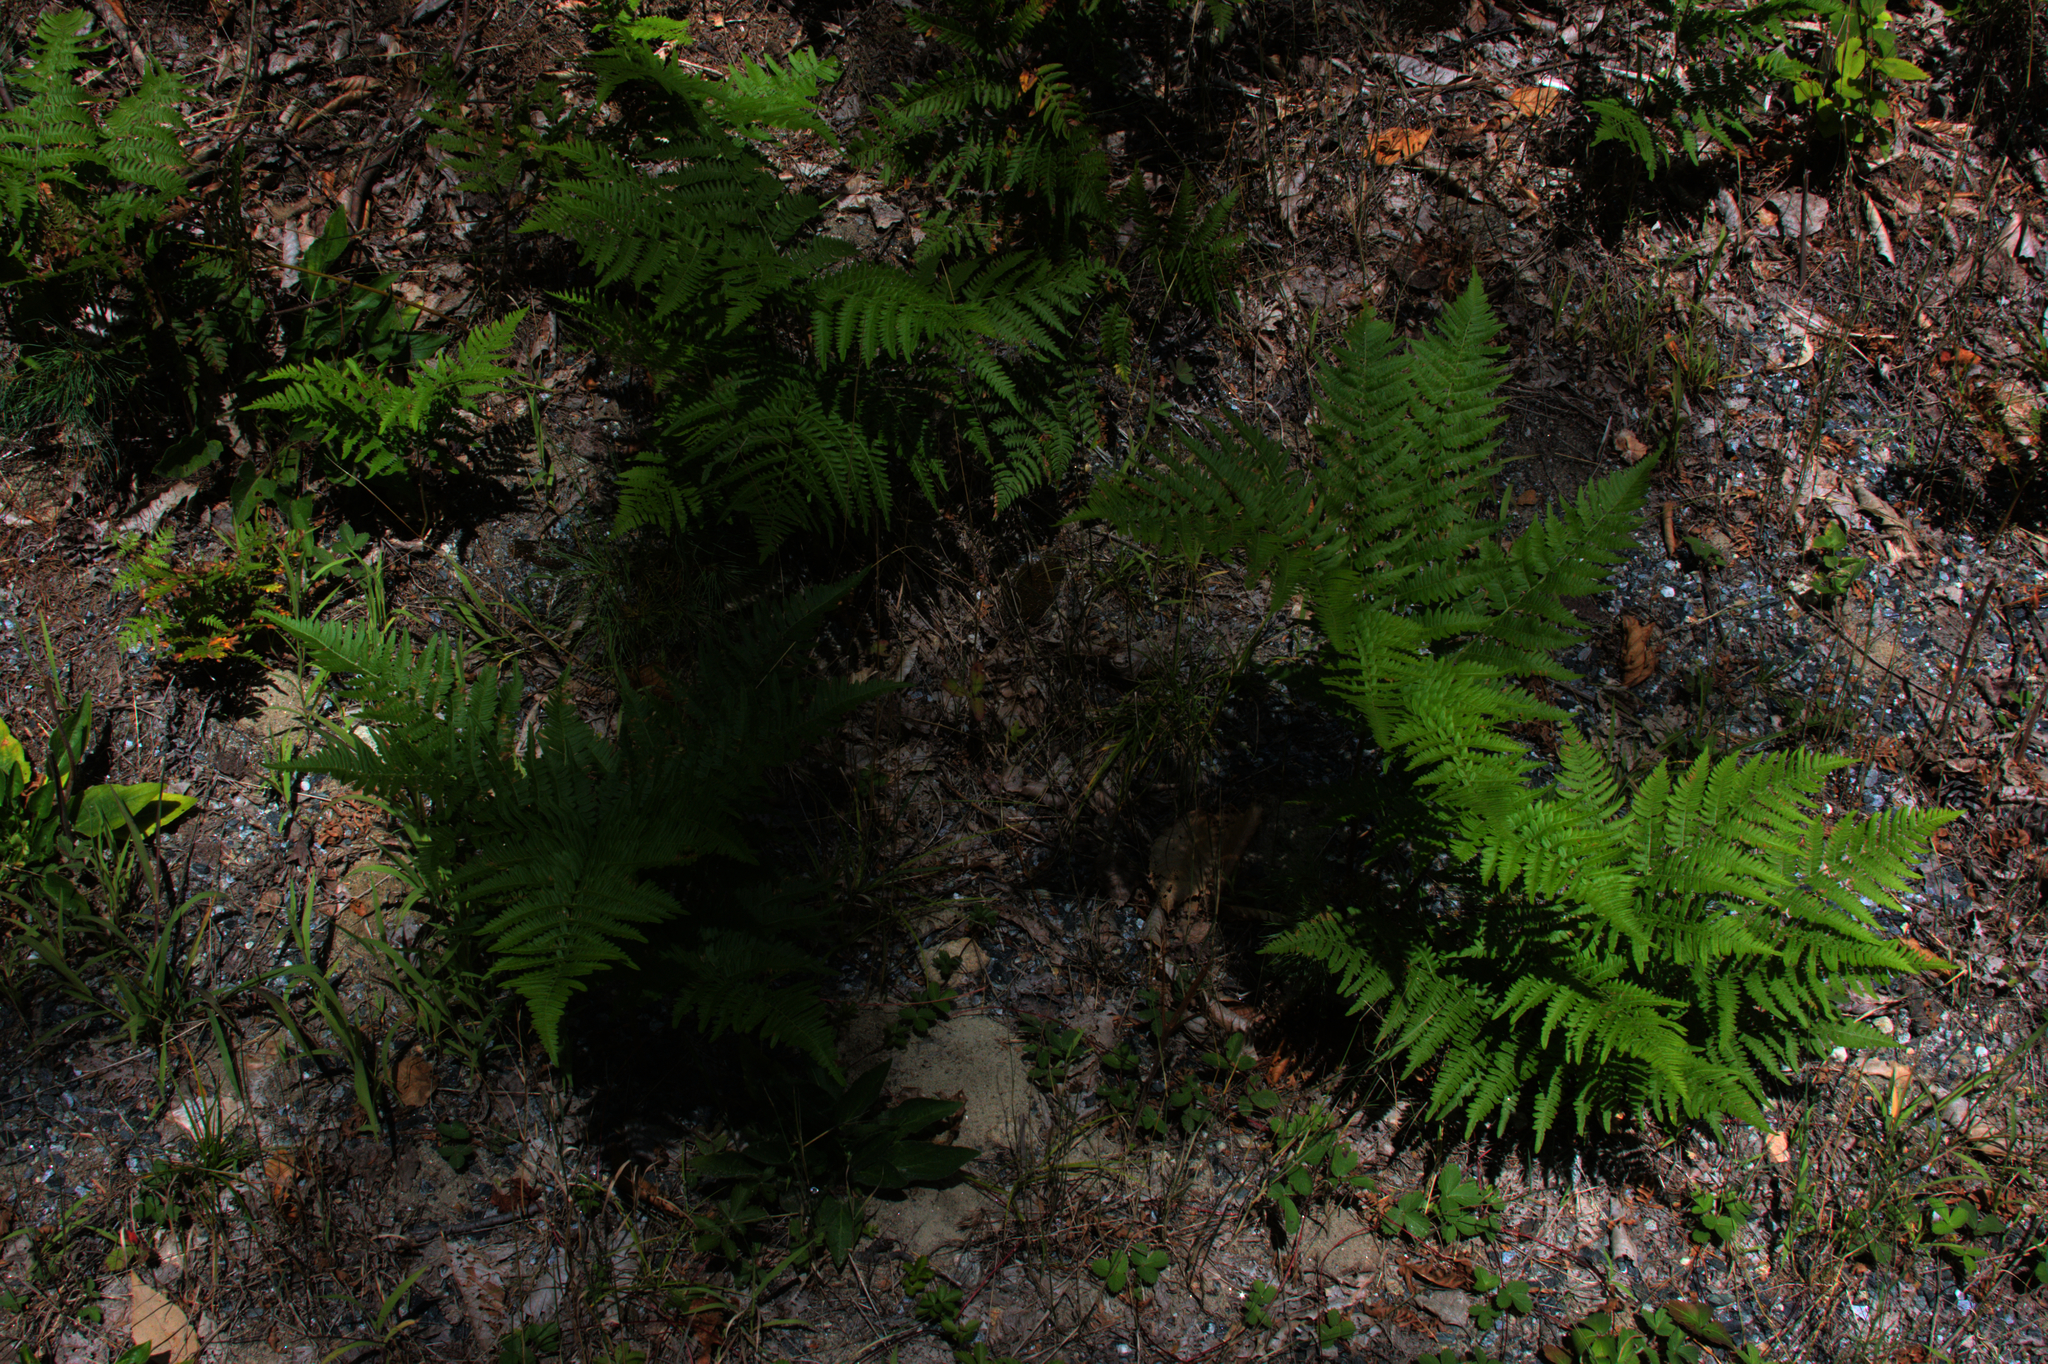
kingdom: Plantae
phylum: Tracheophyta
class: Polypodiopsida
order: Polypodiales
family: Dennstaedtiaceae
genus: Pteridium
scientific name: Pteridium aquilinum
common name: Bracken
